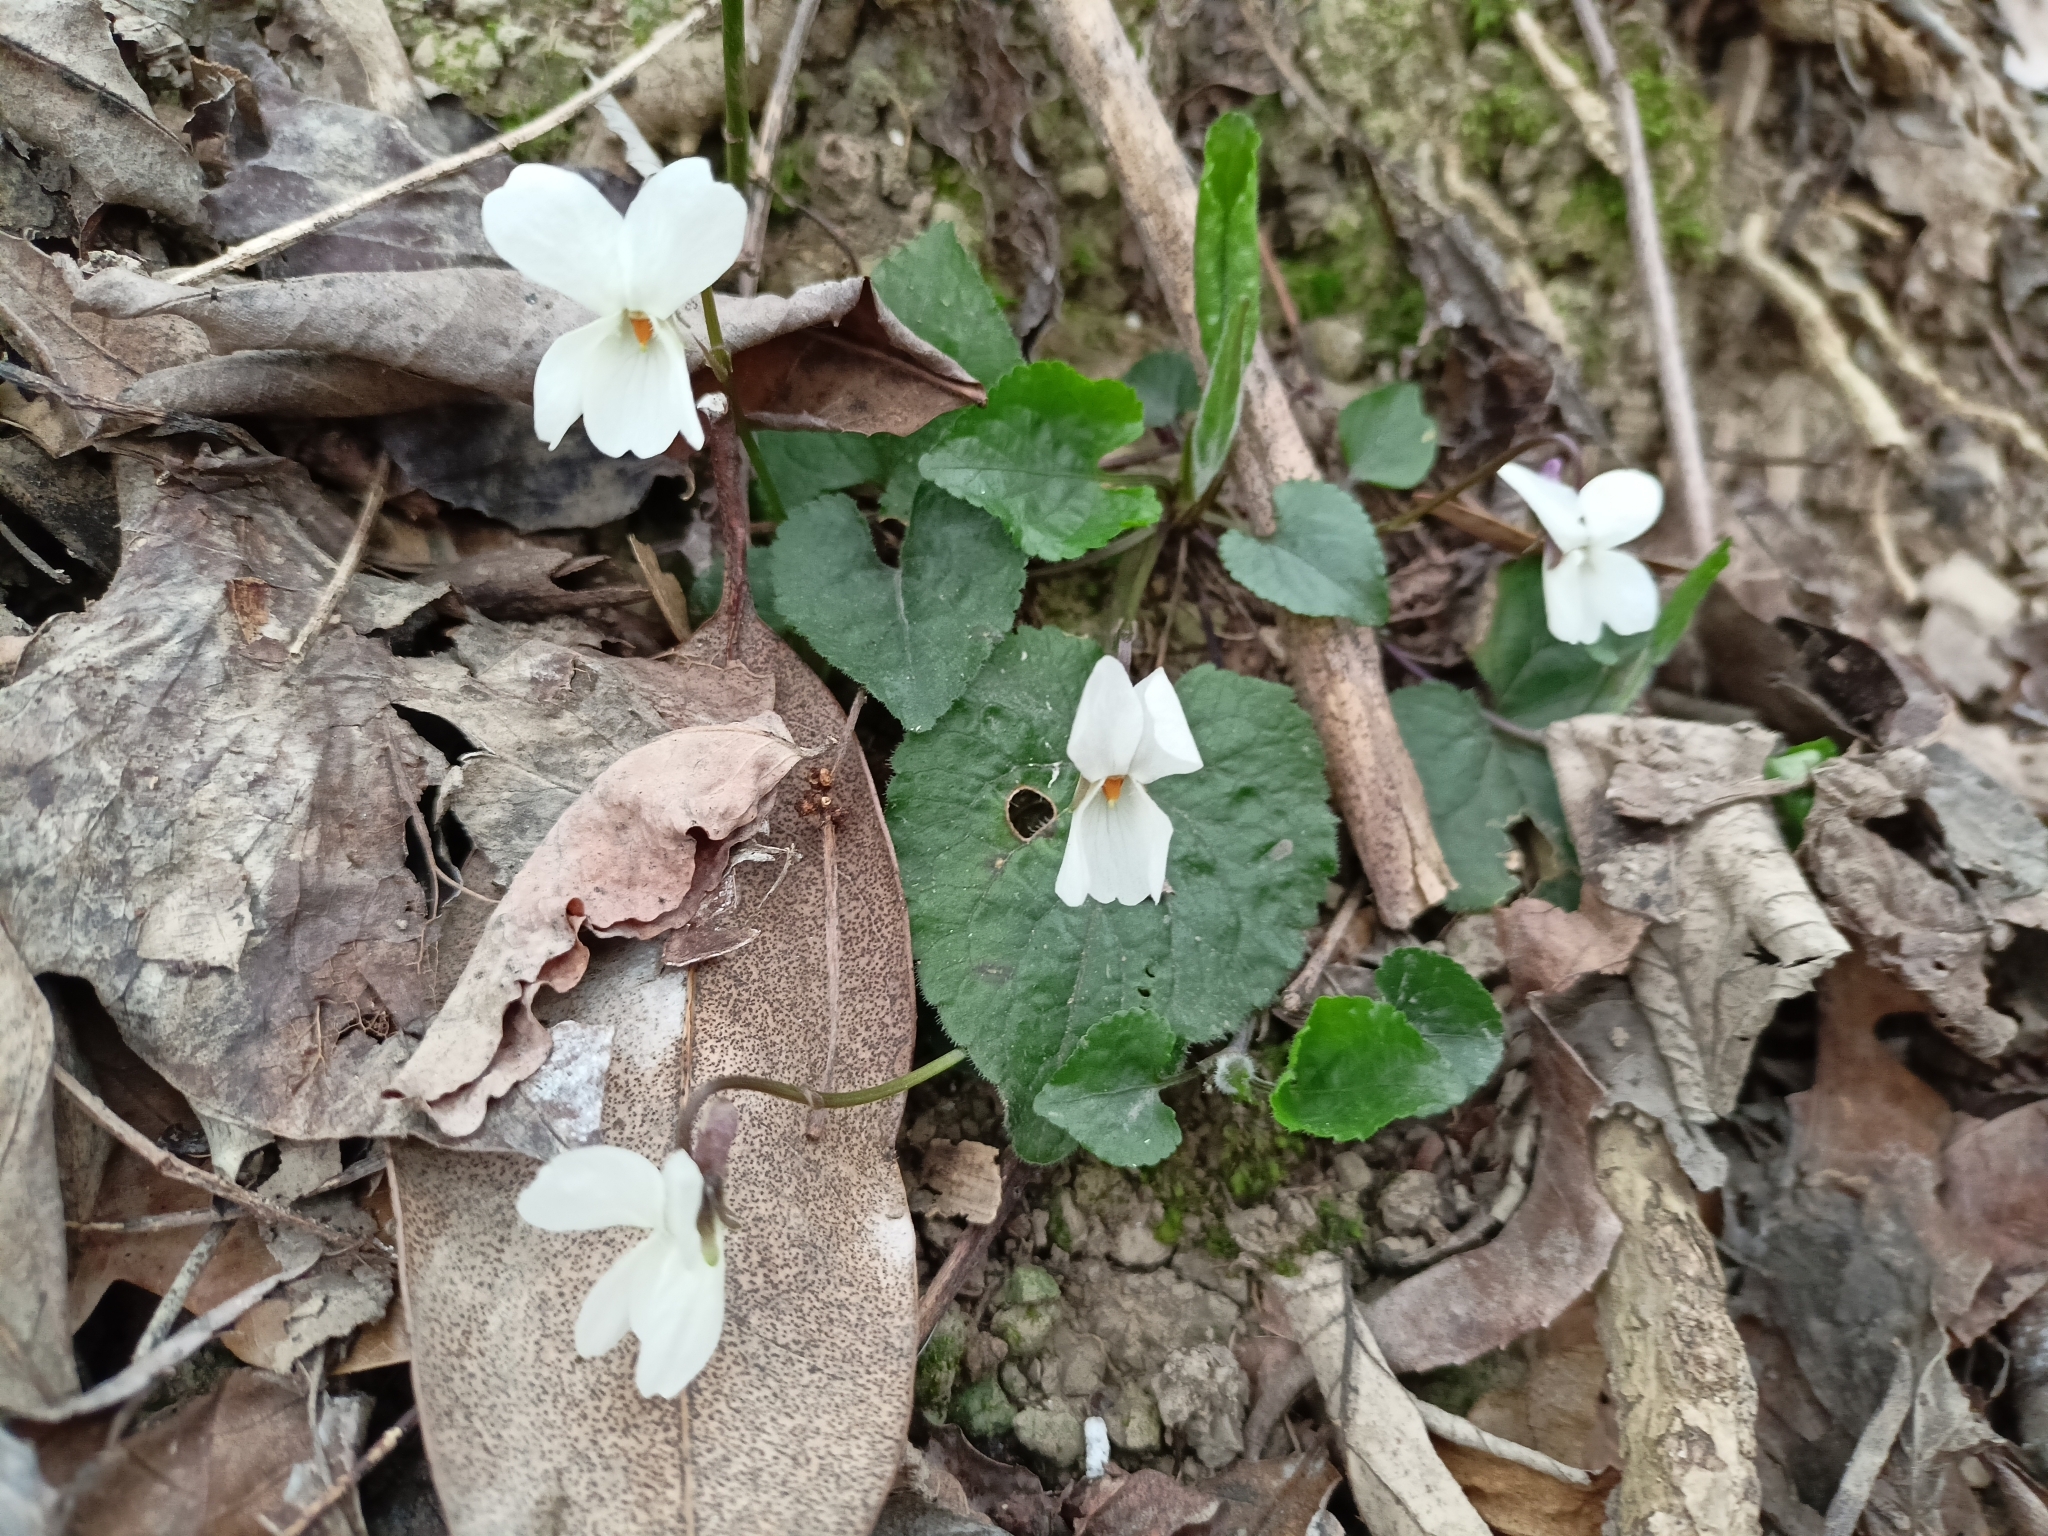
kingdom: Plantae
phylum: Tracheophyta
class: Magnoliopsida
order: Malpighiales
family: Violaceae
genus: Viola
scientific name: Viola alba
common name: White violet
